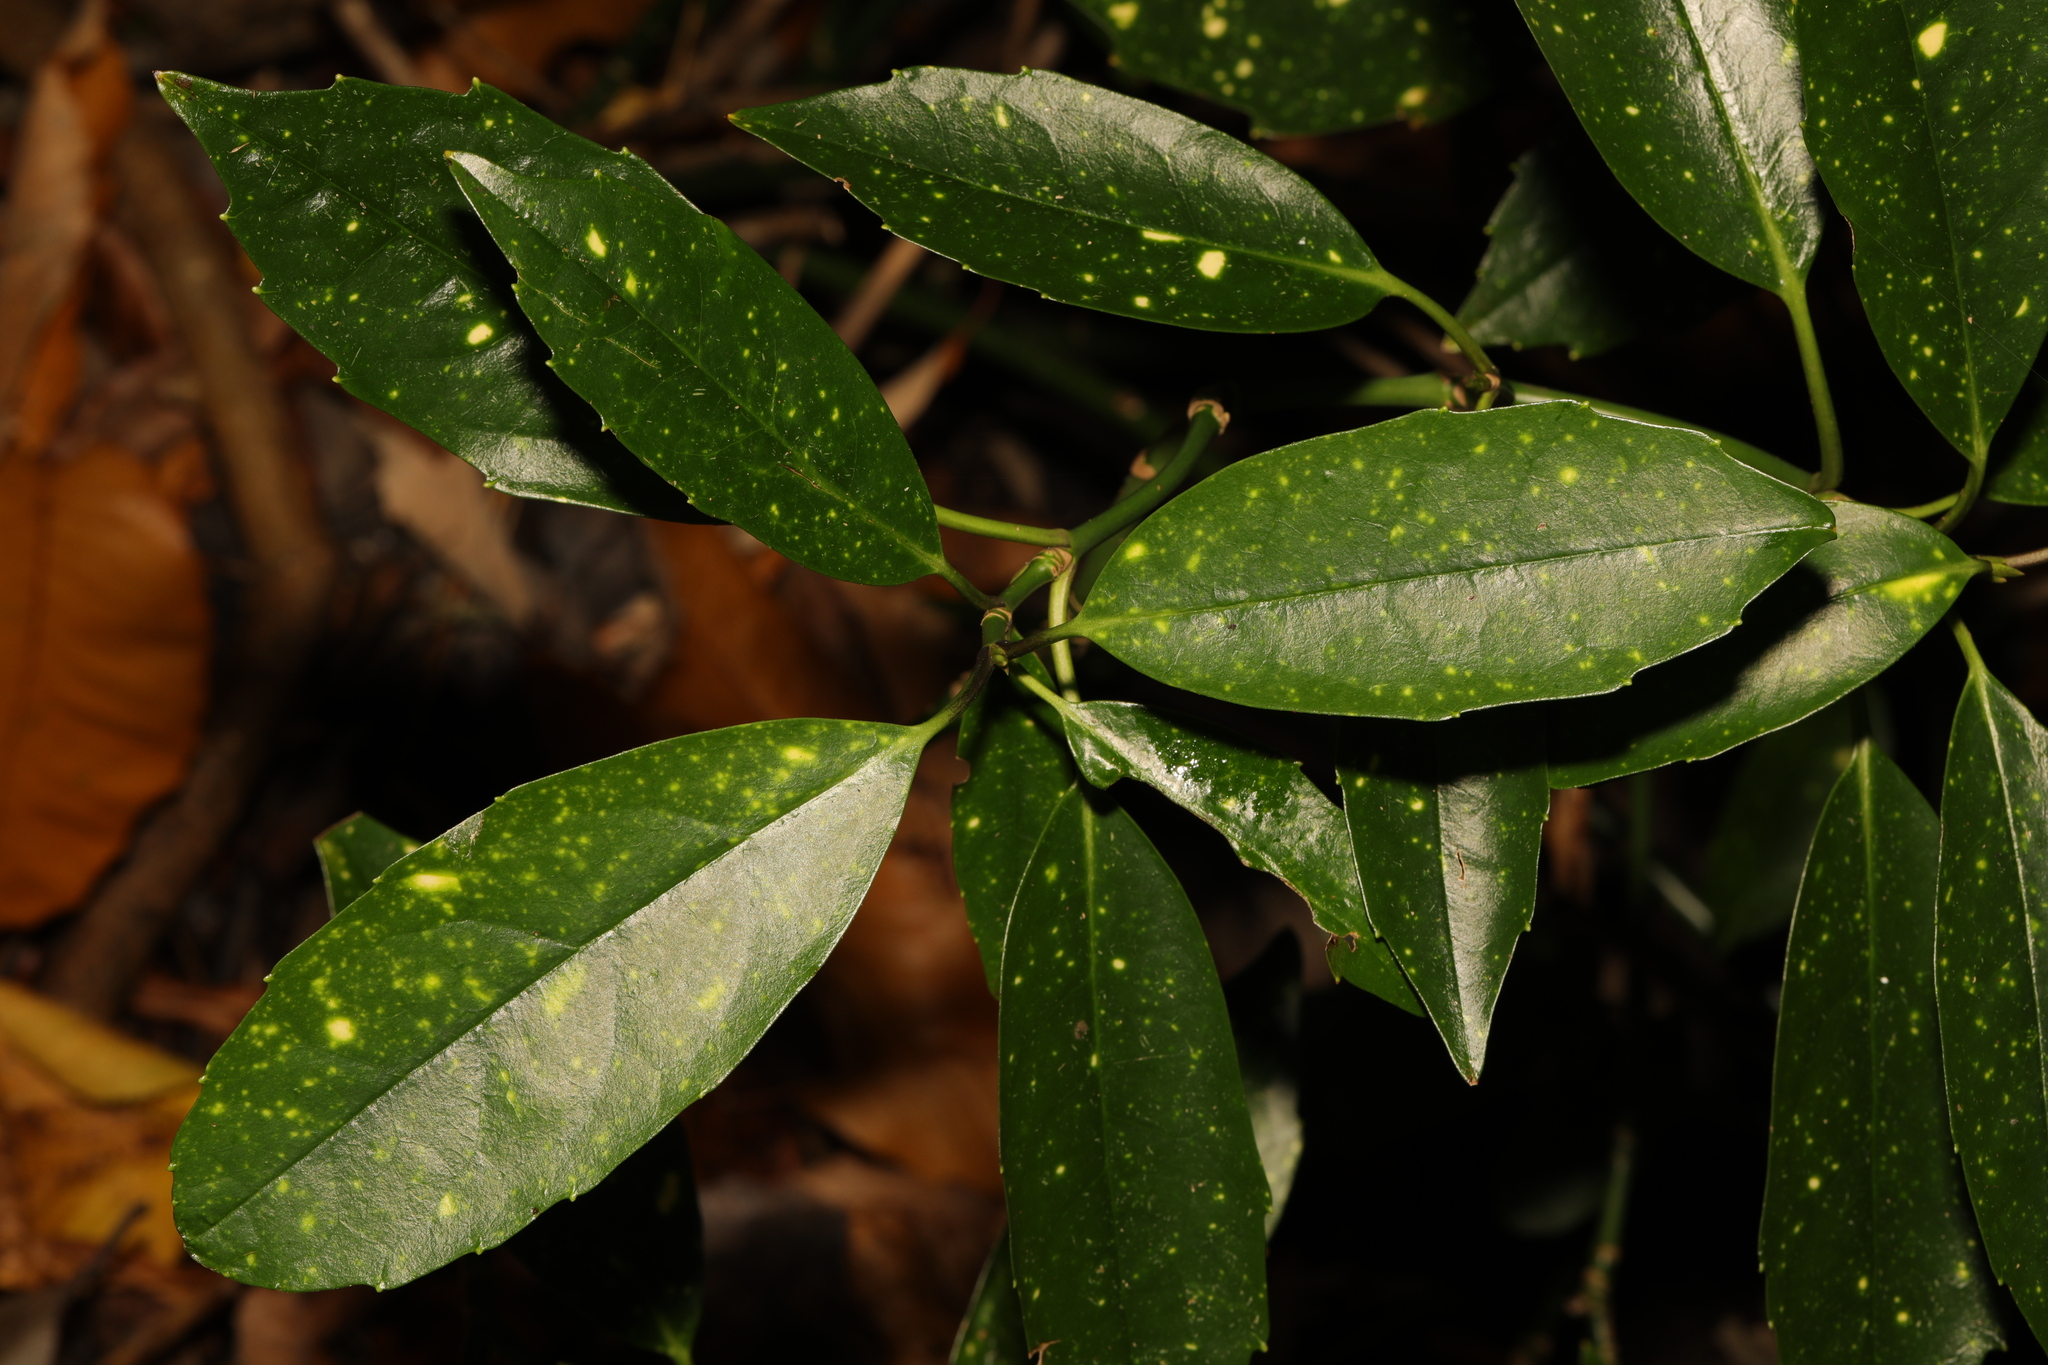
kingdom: Plantae
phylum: Tracheophyta
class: Magnoliopsida
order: Garryales
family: Garryaceae
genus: Aucuba
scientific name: Aucuba japonica
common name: Spotted-laurel
